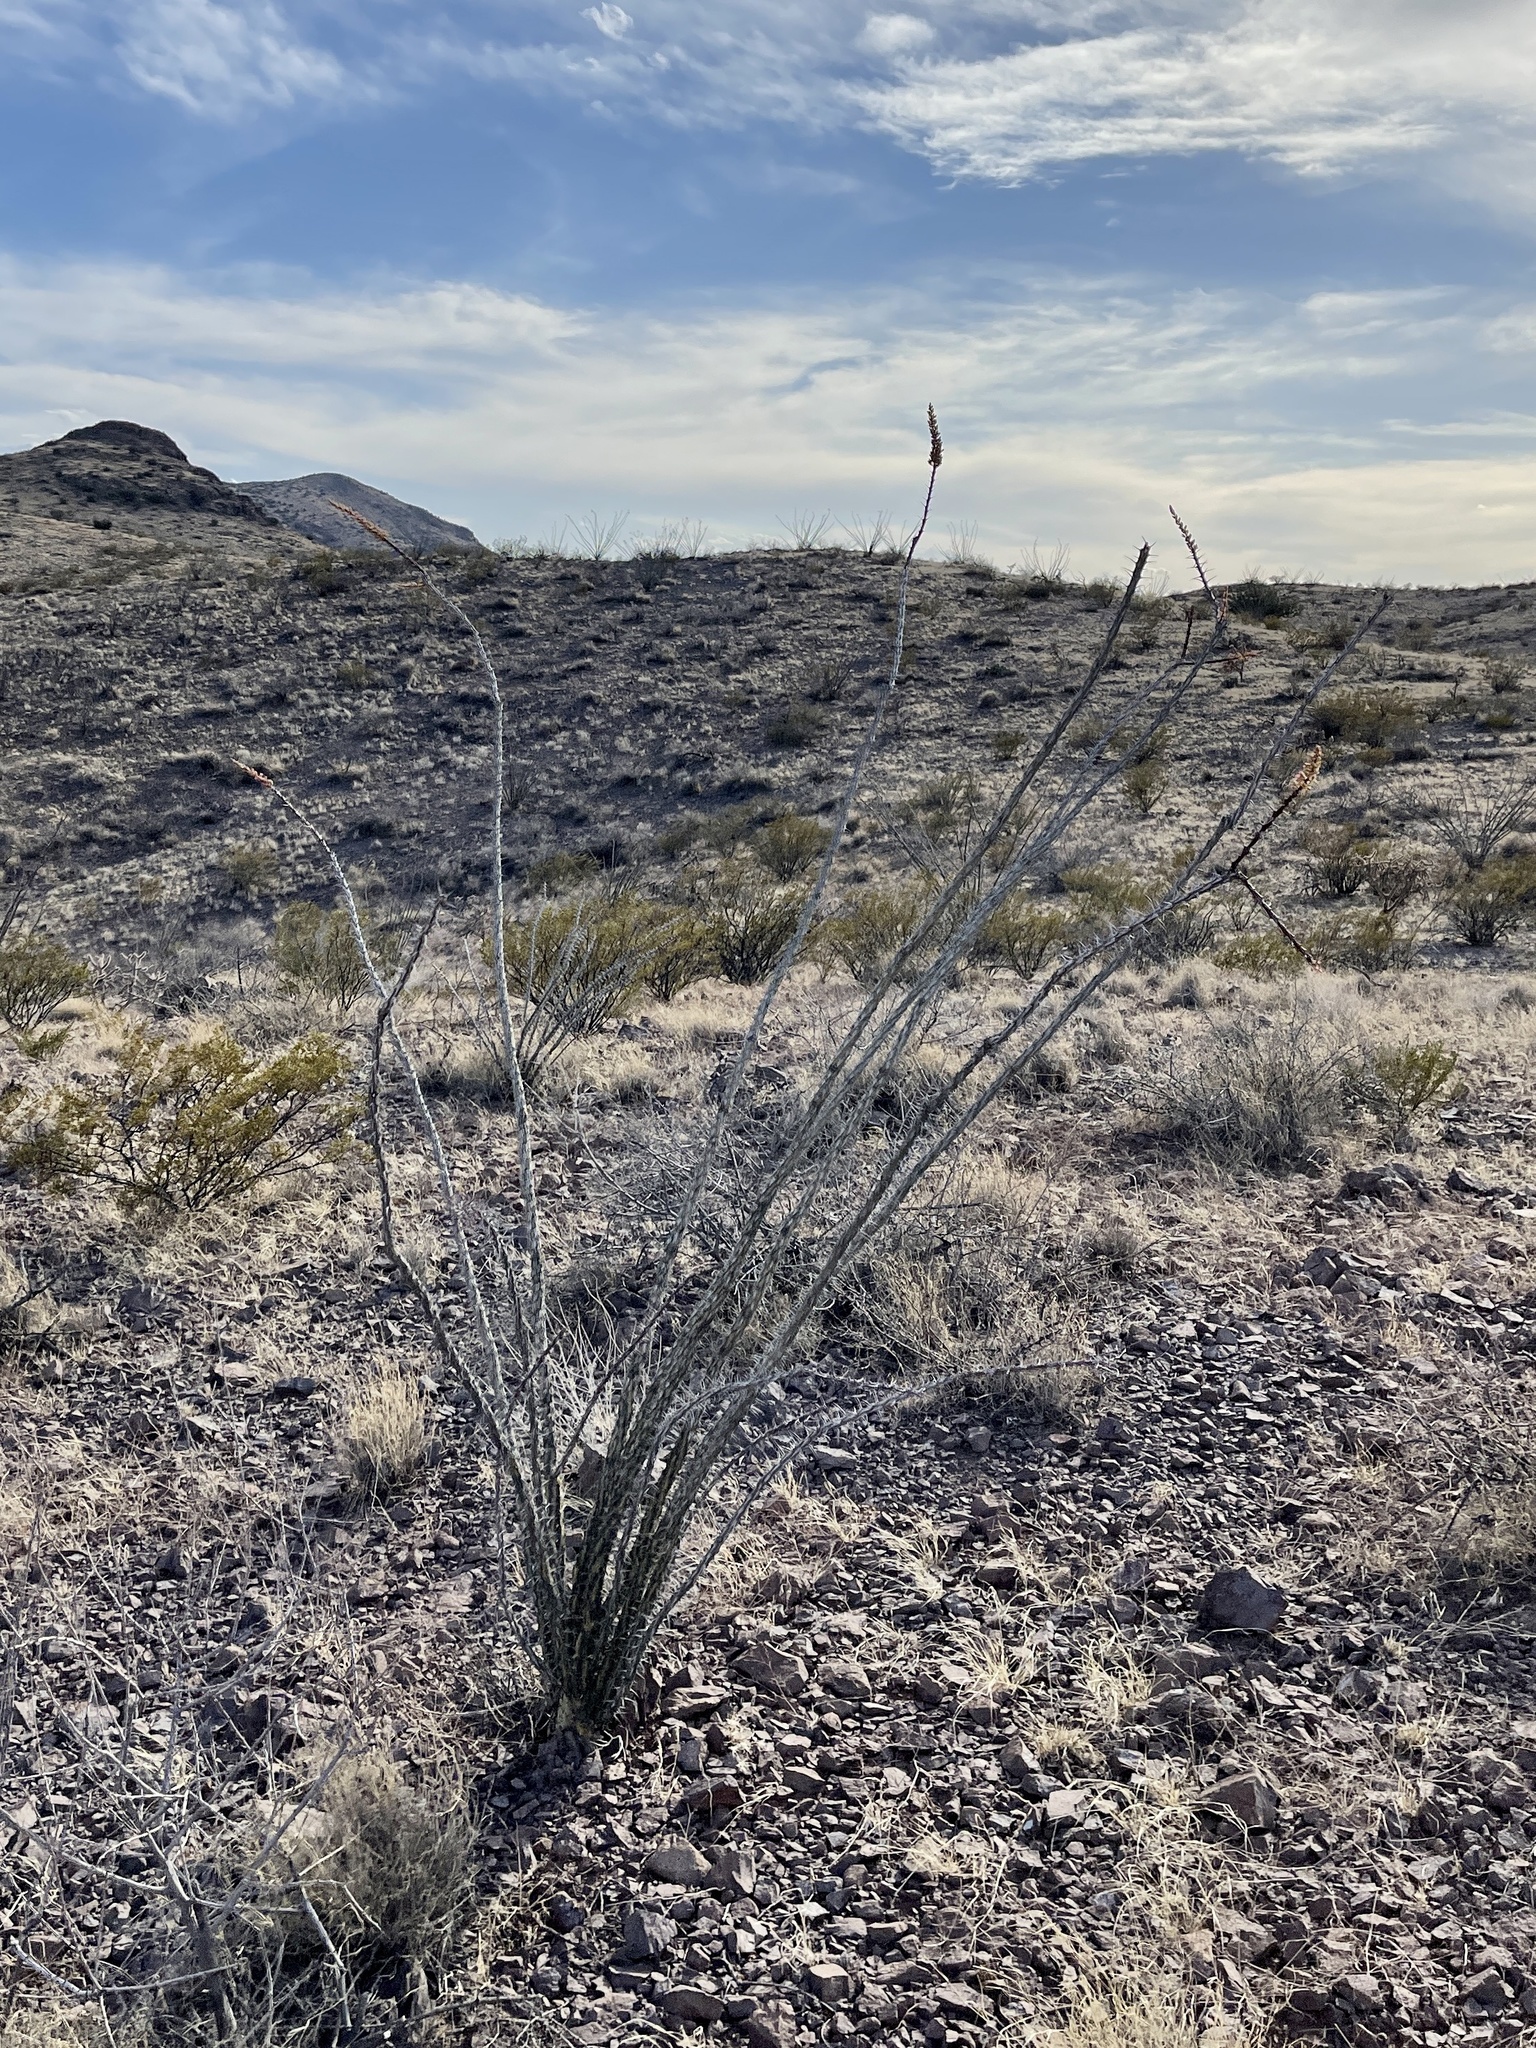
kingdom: Plantae
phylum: Tracheophyta
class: Magnoliopsida
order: Ericales
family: Fouquieriaceae
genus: Fouquieria
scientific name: Fouquieria splendens
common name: Vine-cactus
